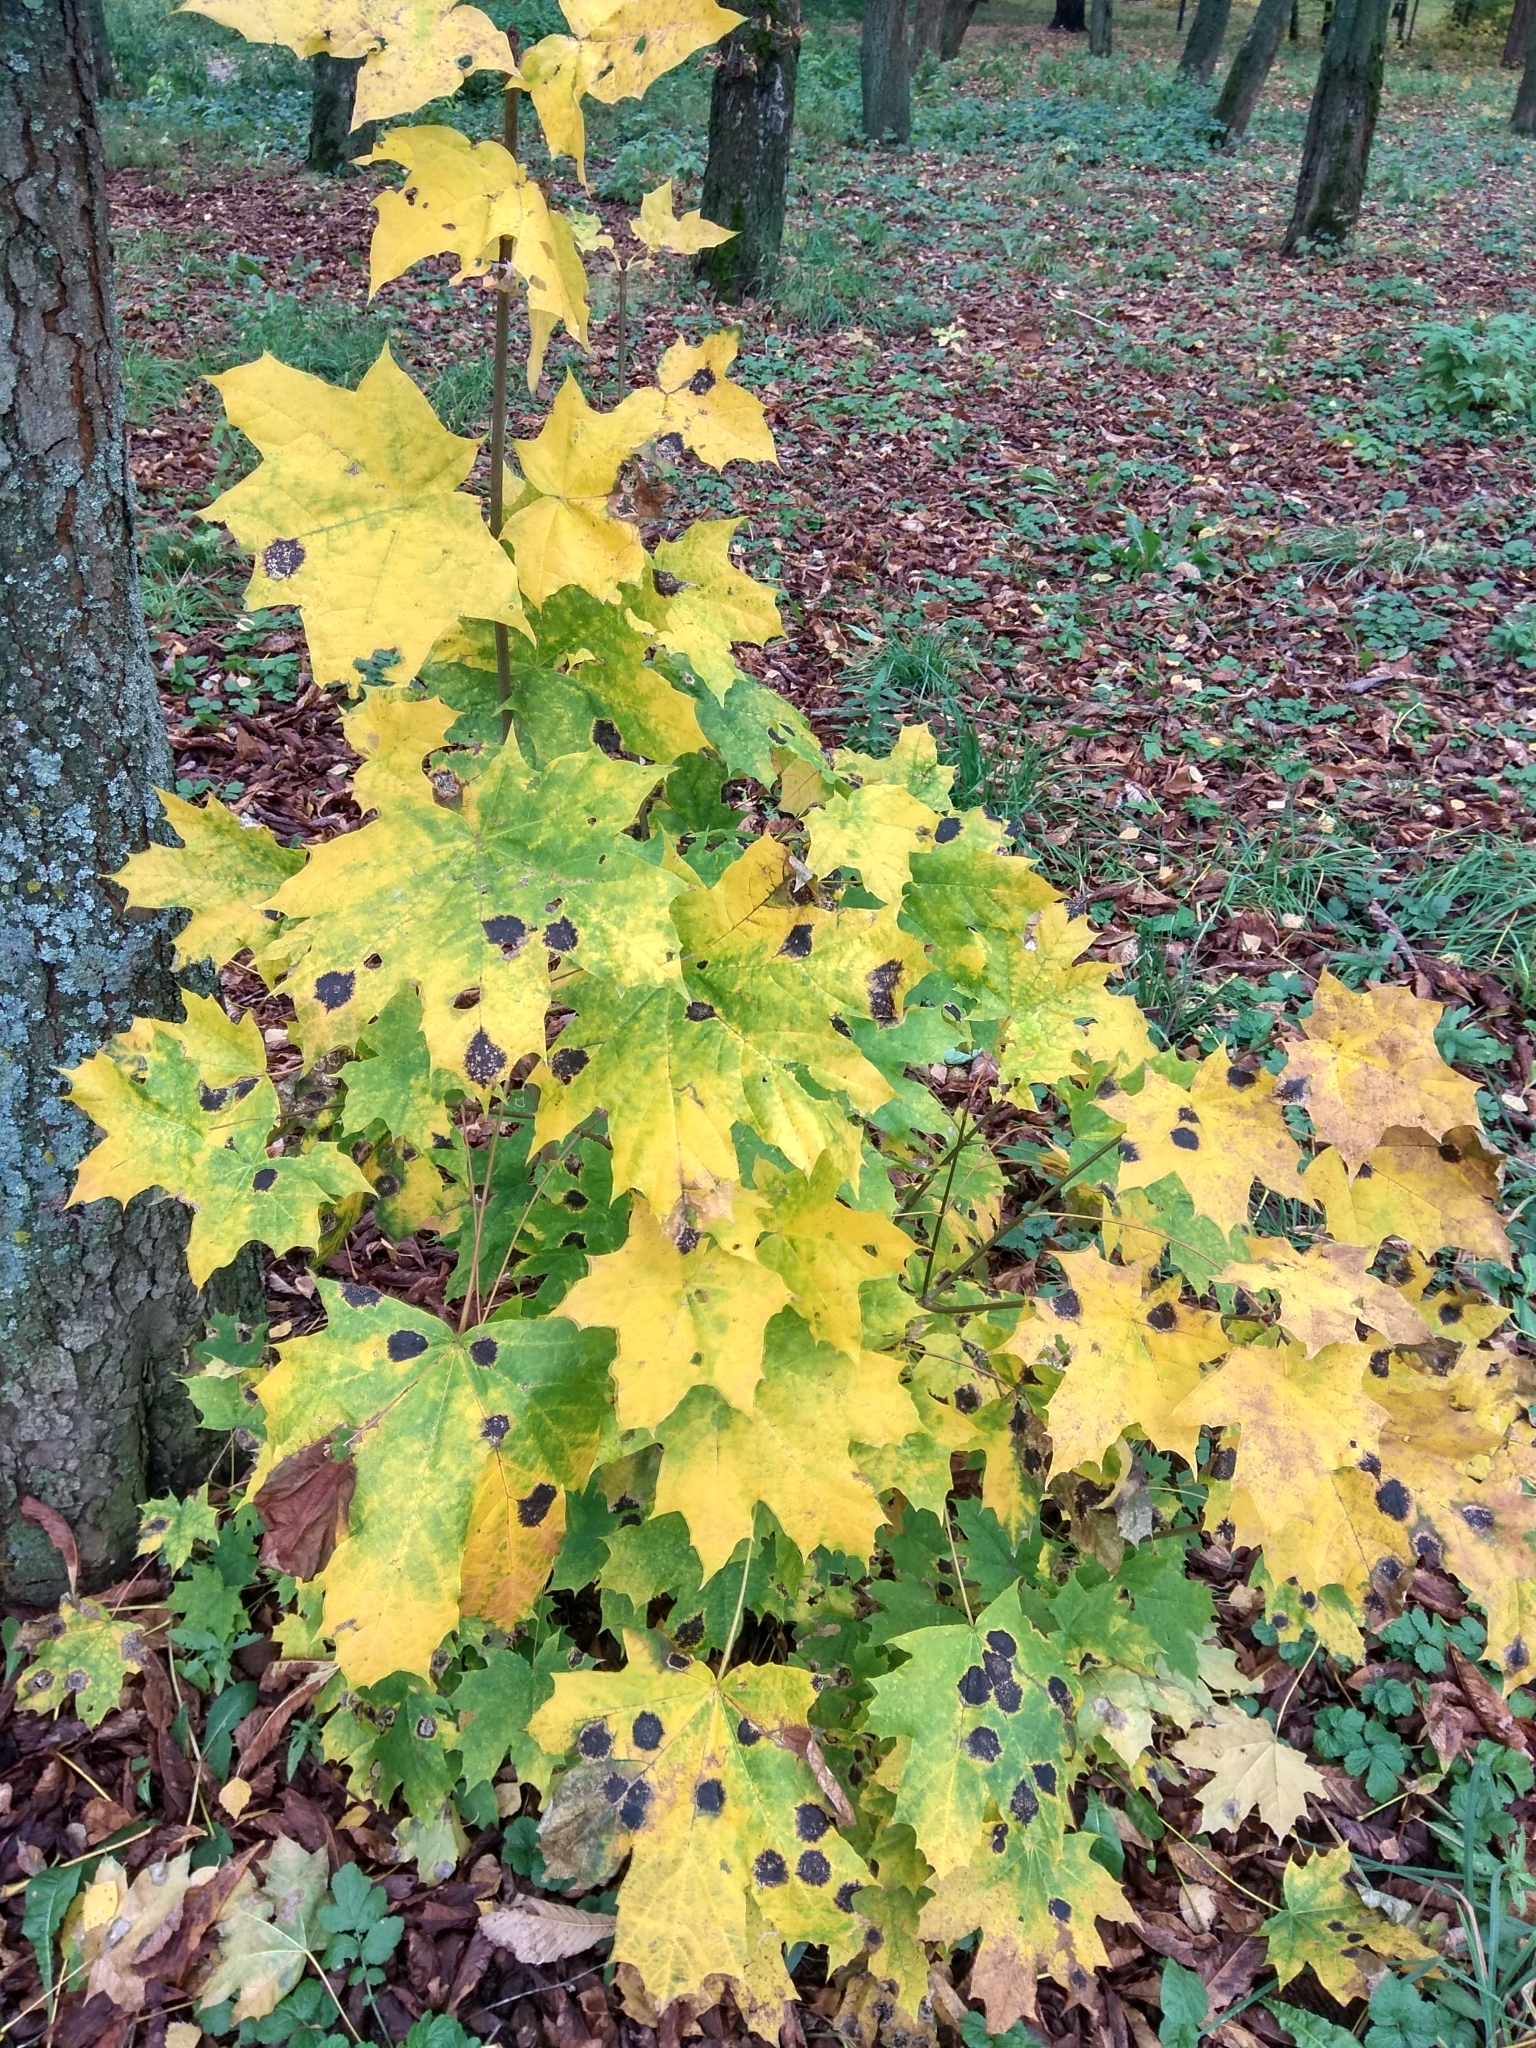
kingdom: Plantae
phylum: Tracheophyta
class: Magnoliopsida
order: Sapindales
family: Sapindaceae
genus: Acer
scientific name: Acer platanoides
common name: Norway maple
